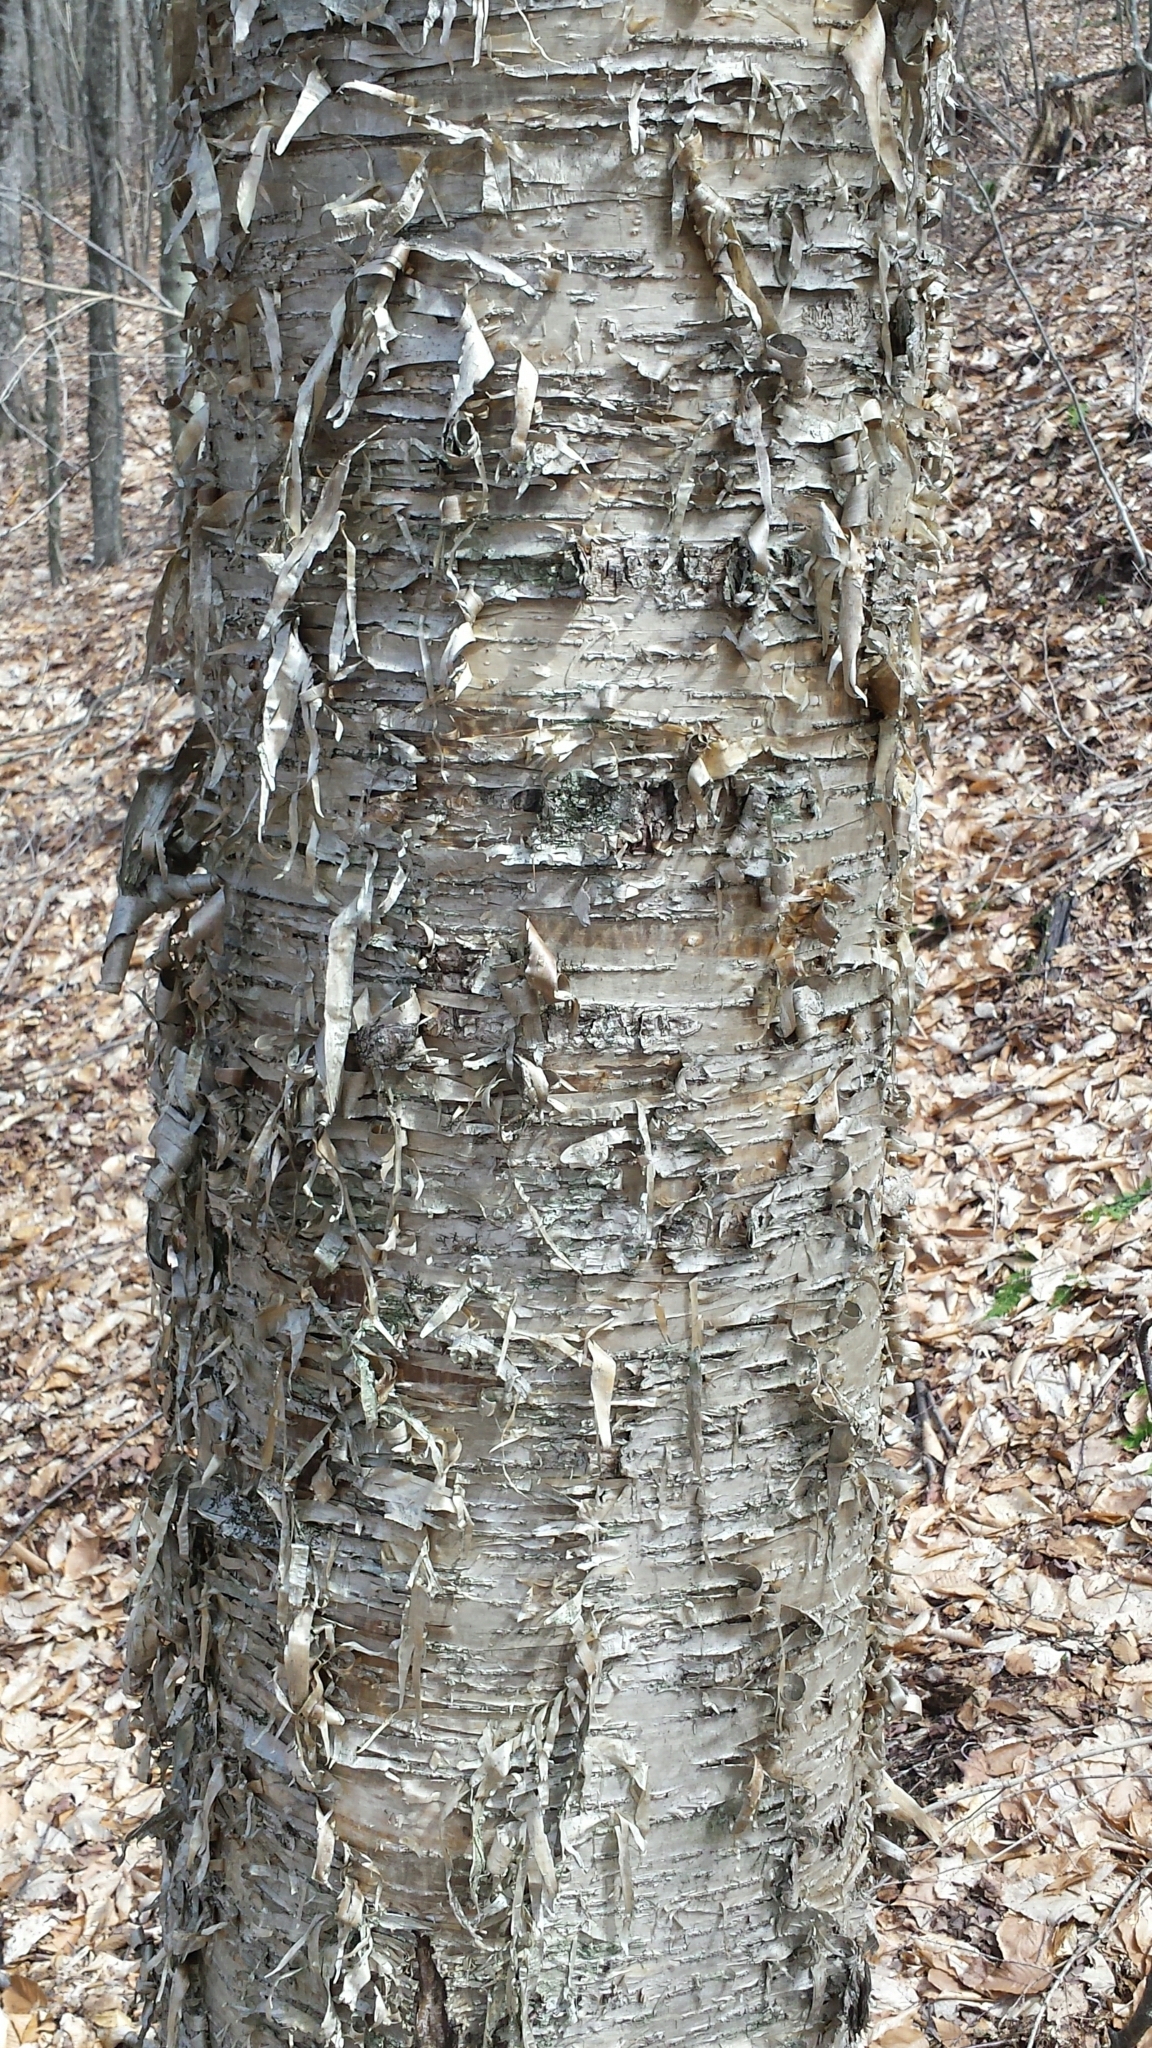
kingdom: Plantae
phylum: Tracheophyta
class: Magnoliopsida
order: Fagales
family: Betulaceae
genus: Betula
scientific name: Betula alleghaniensis
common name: Yellow birch
